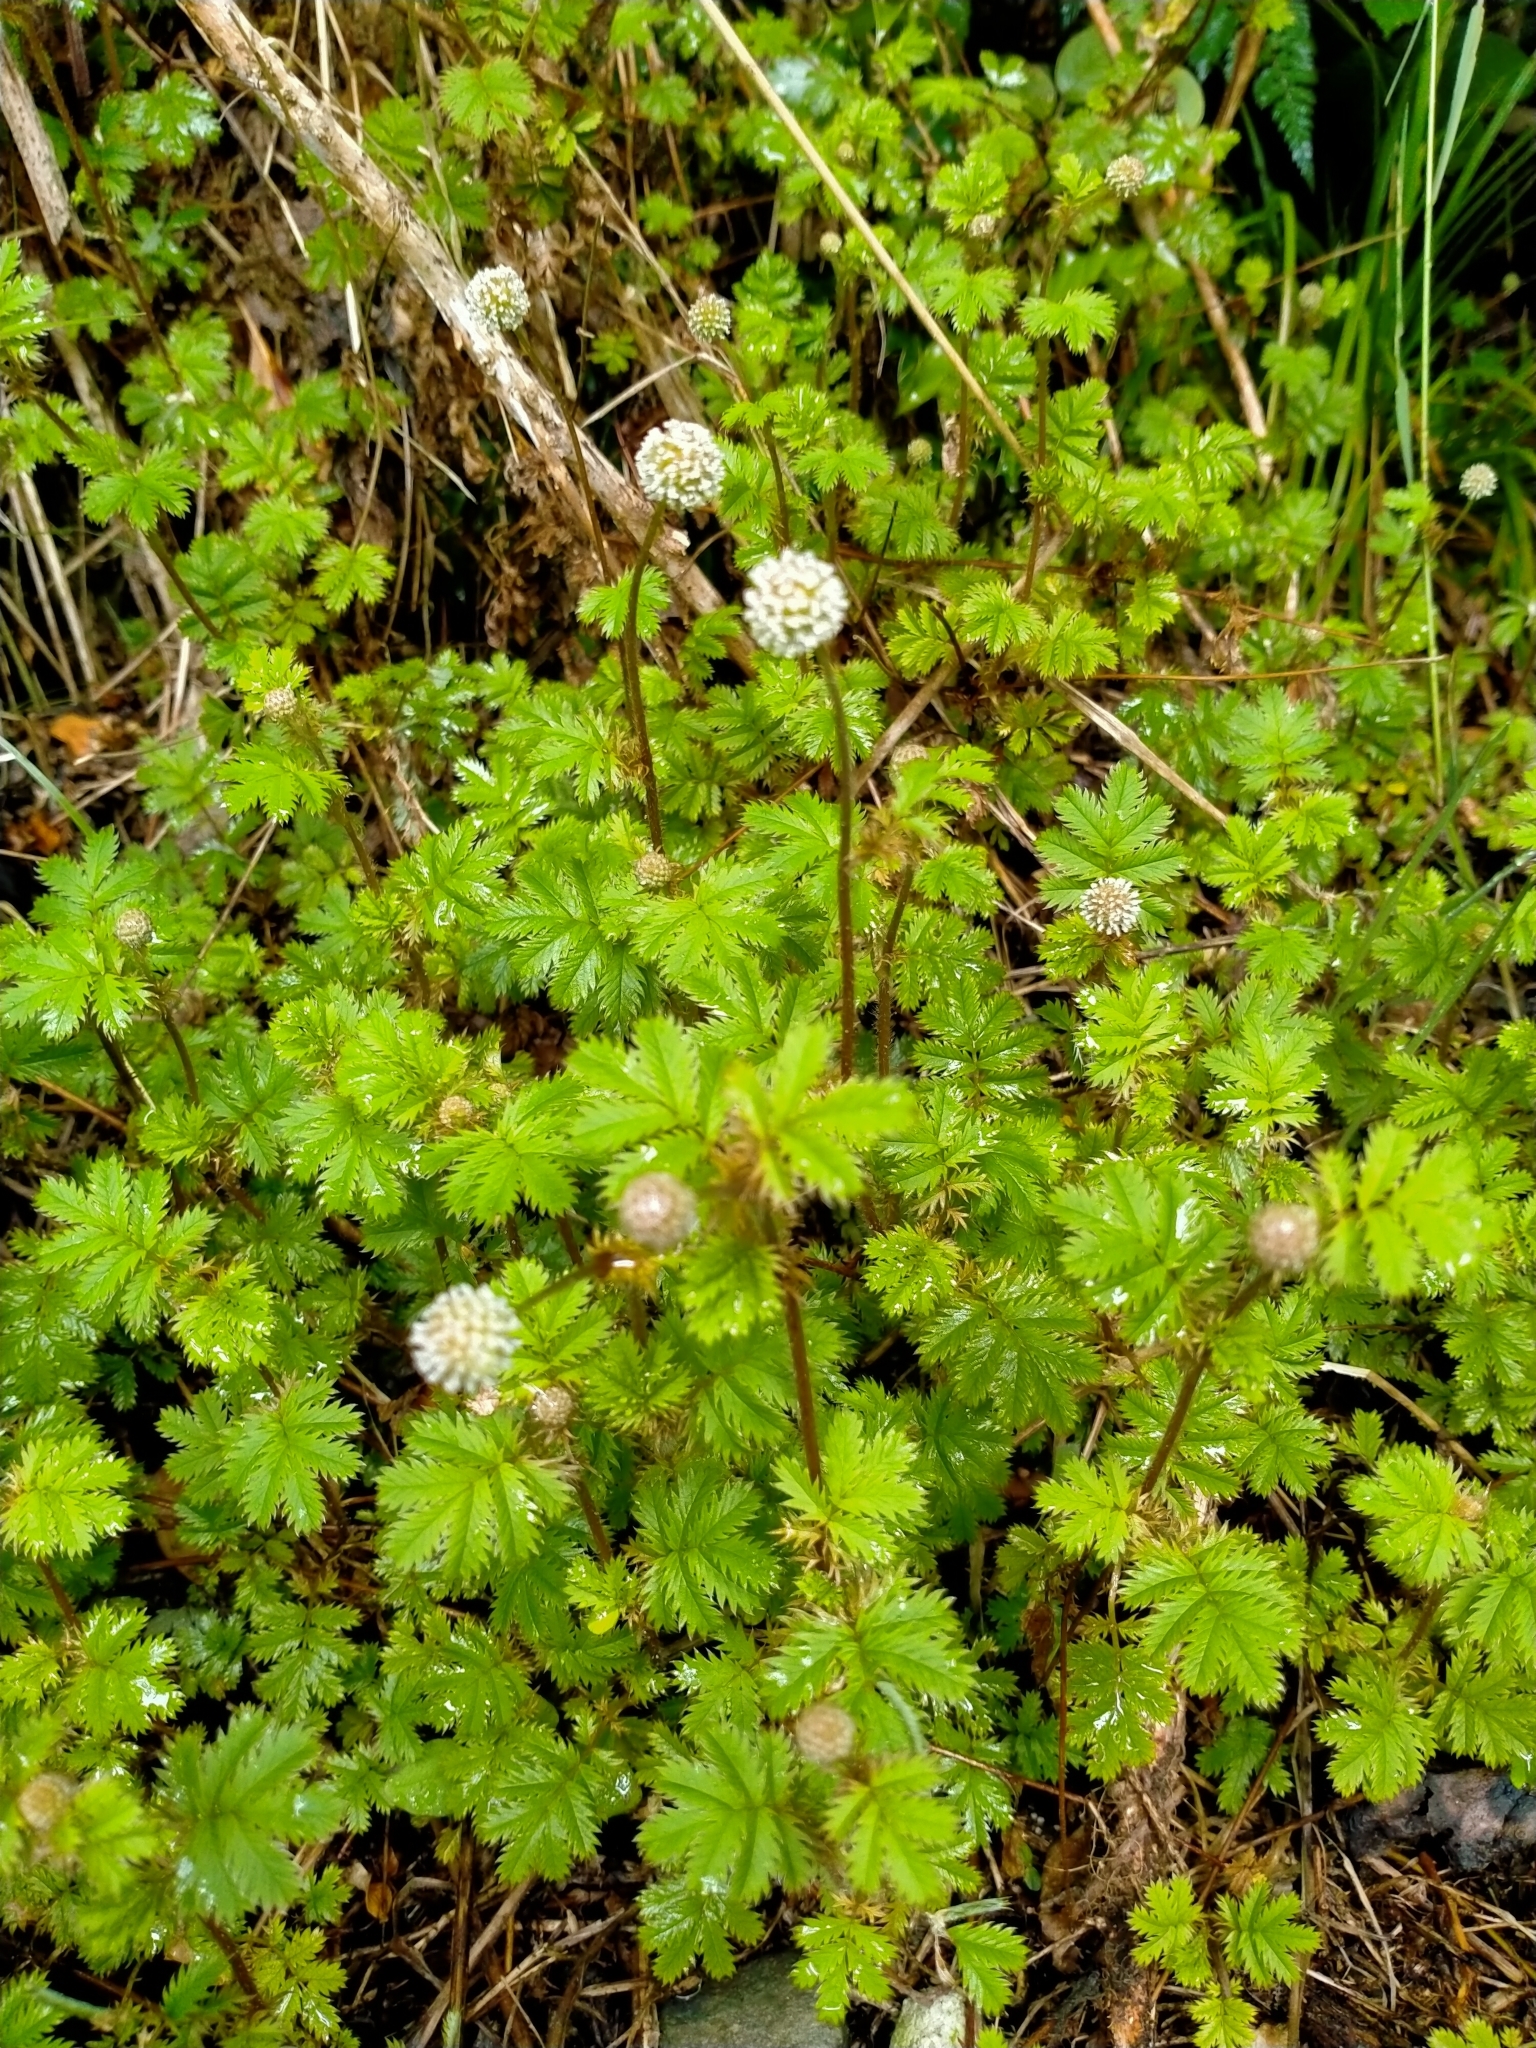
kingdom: Plantae
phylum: Tracheophyta
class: Magnoliopsida
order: Rosales
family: Rosaceae
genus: Acaena
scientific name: Acaena anserinifolia
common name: Bronze pirri-pirri-bur
